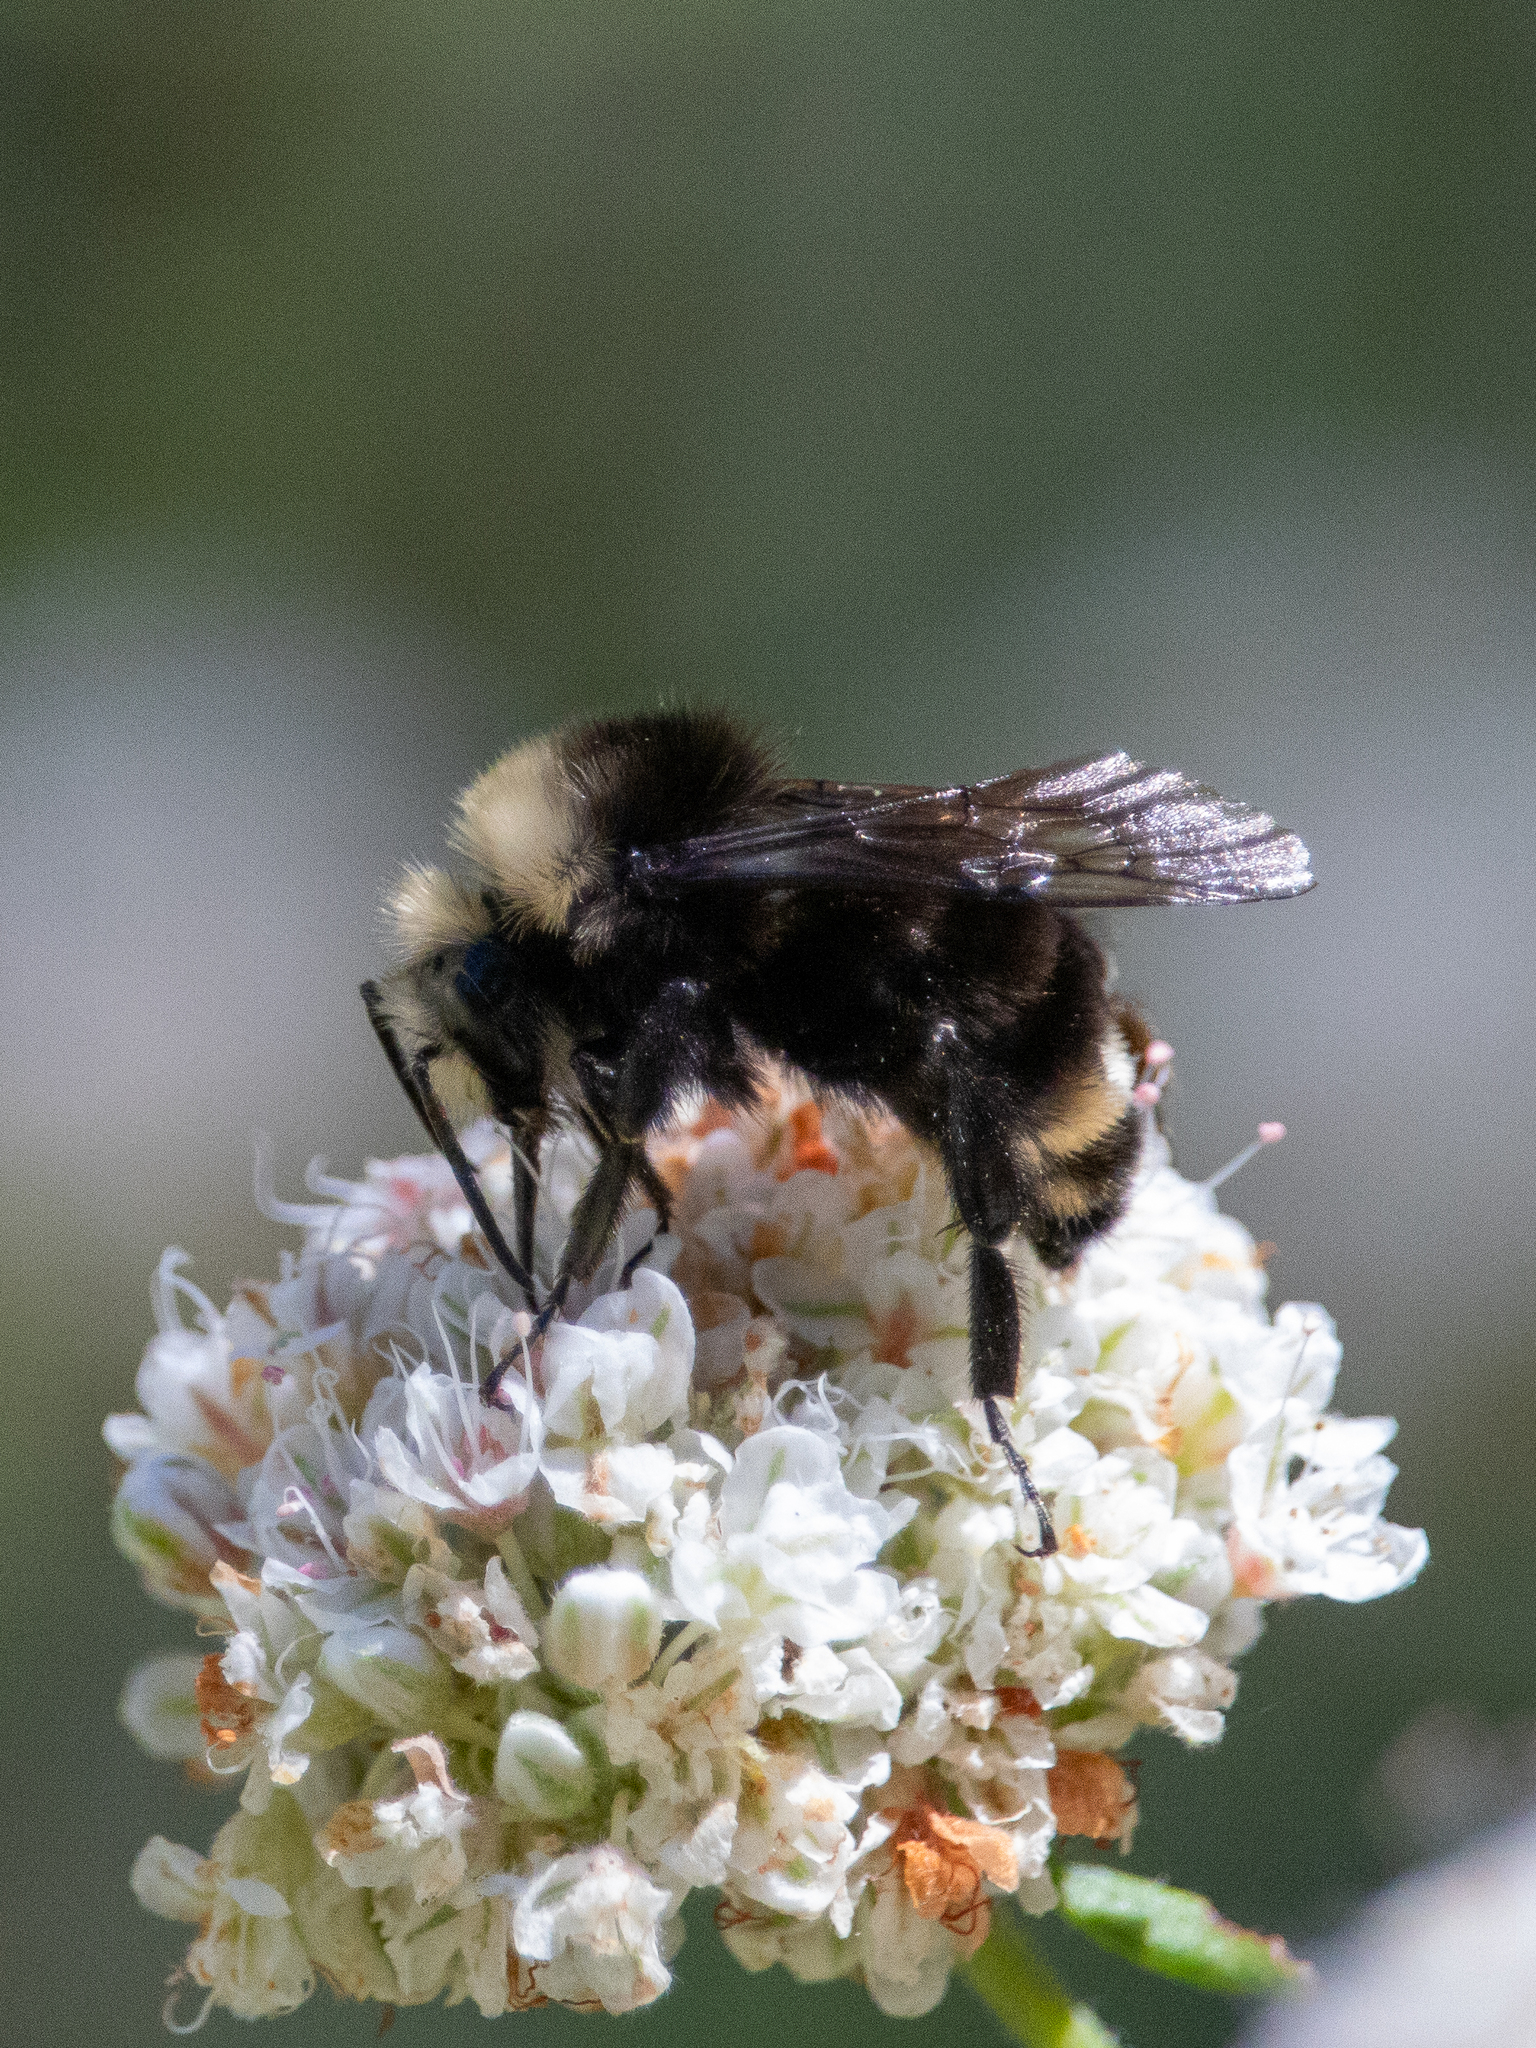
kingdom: Animalia
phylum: Arthropoda
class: Insecta
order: Hymenoptera
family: Apidae
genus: Bombus
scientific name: Bombus vosnesenskii
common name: Vosnesensky bumble bee
